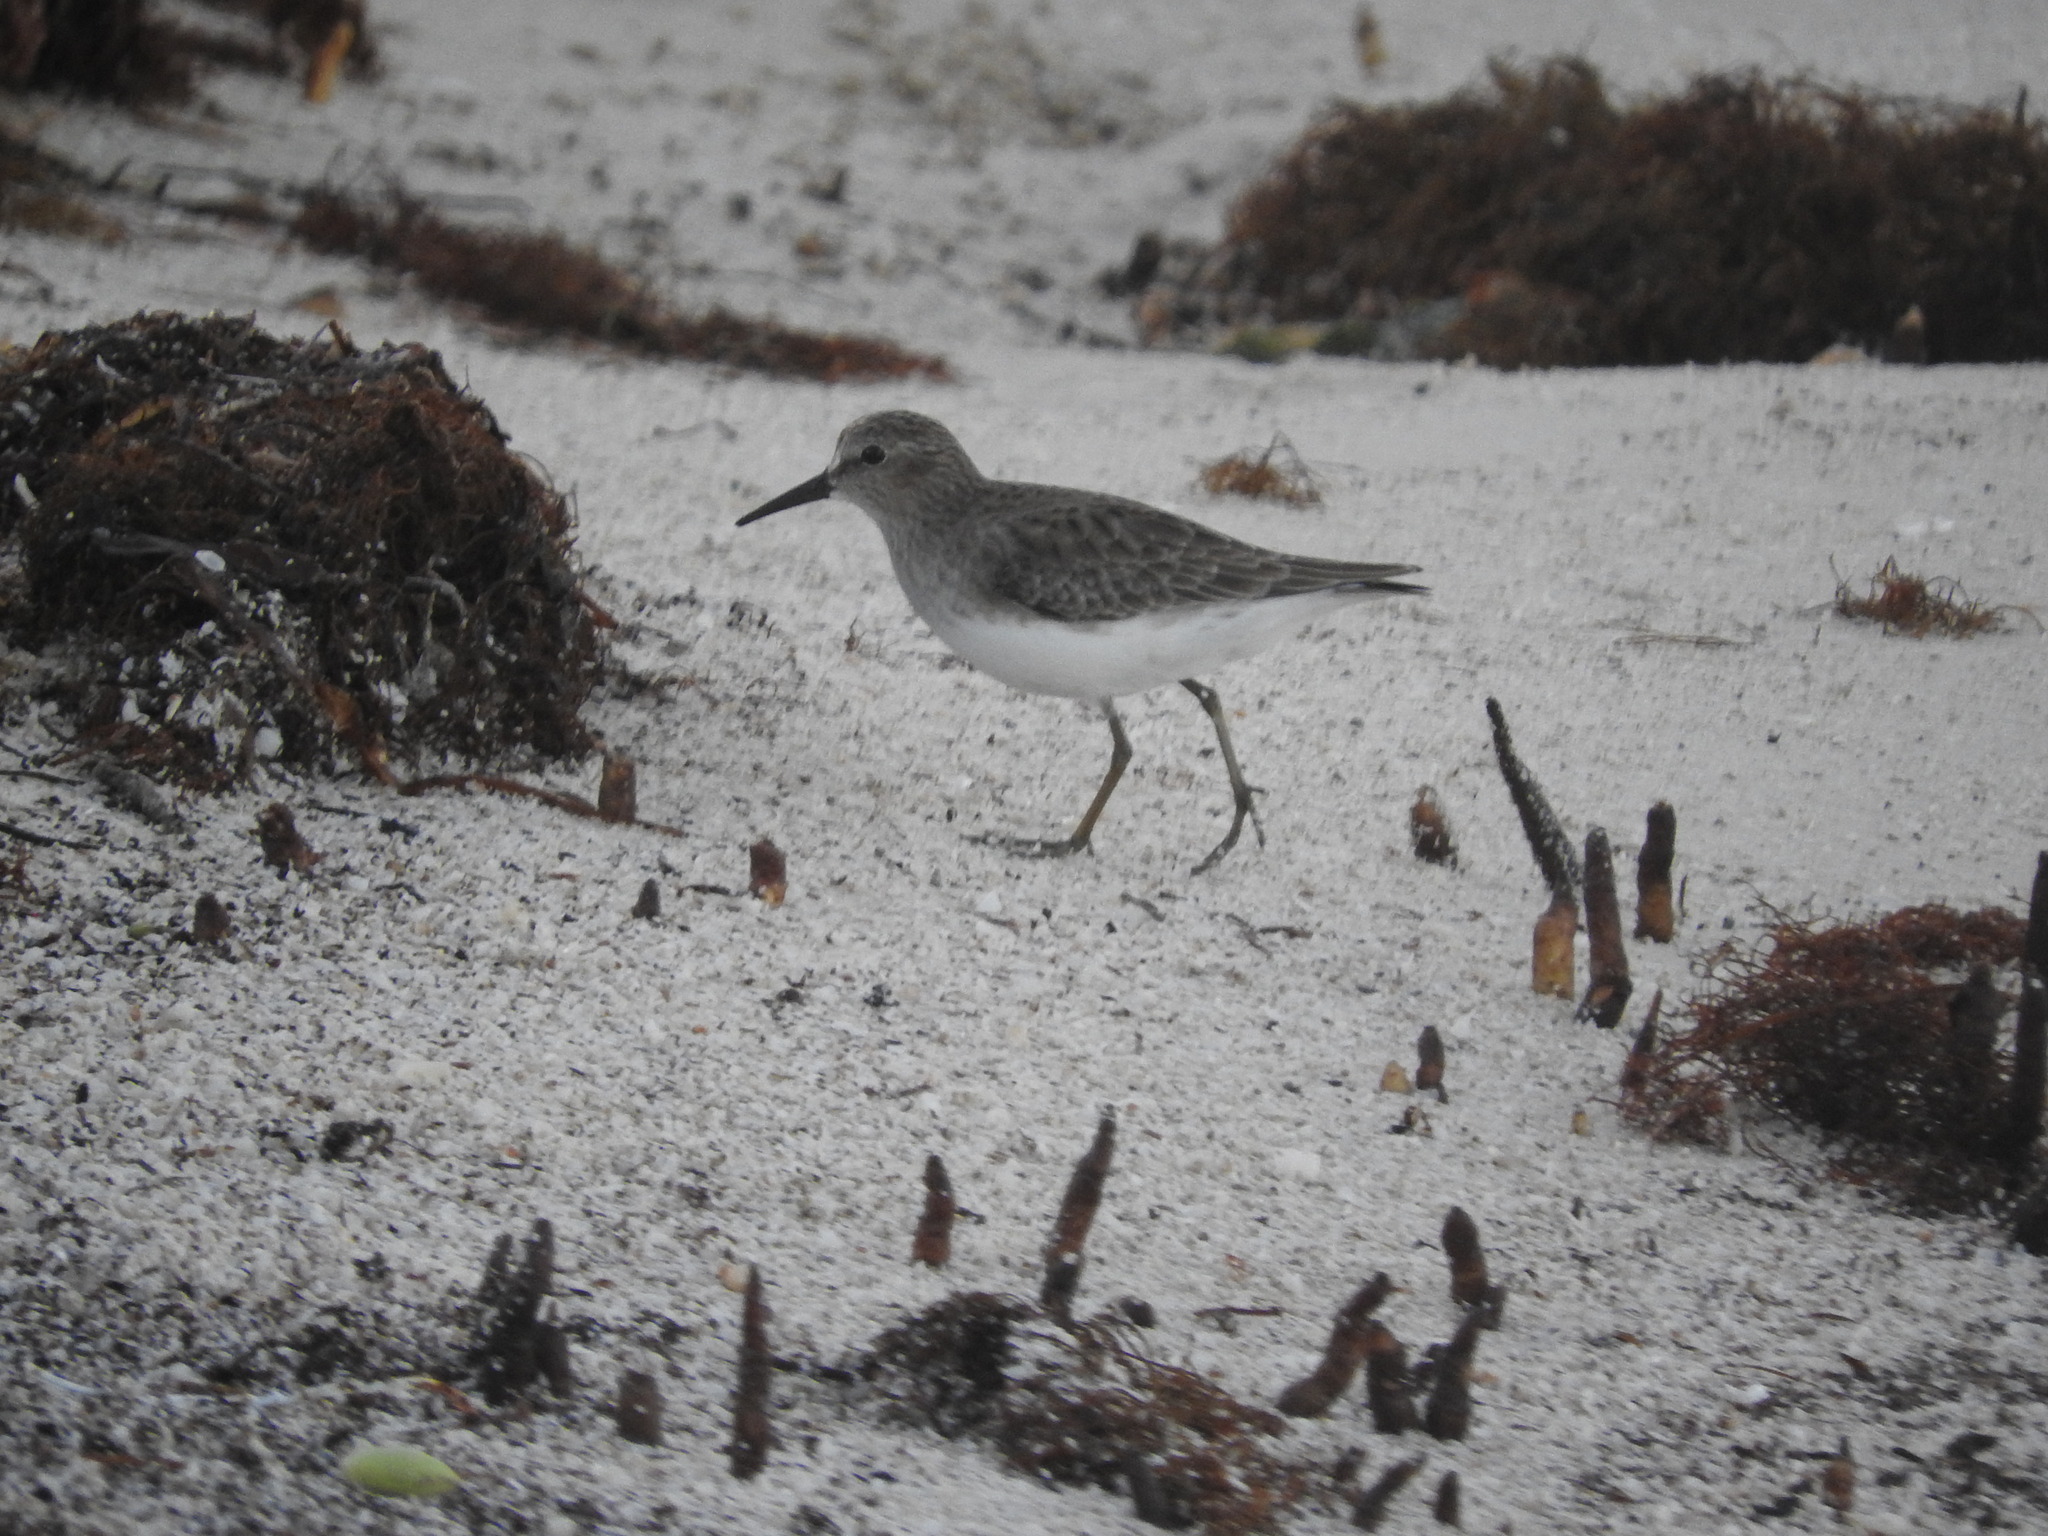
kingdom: Animalia
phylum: Chordata
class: Aves
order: Charadriiformes
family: Scolopacidae
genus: Calidris
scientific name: Calidris minutilla
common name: Least sandpiper
